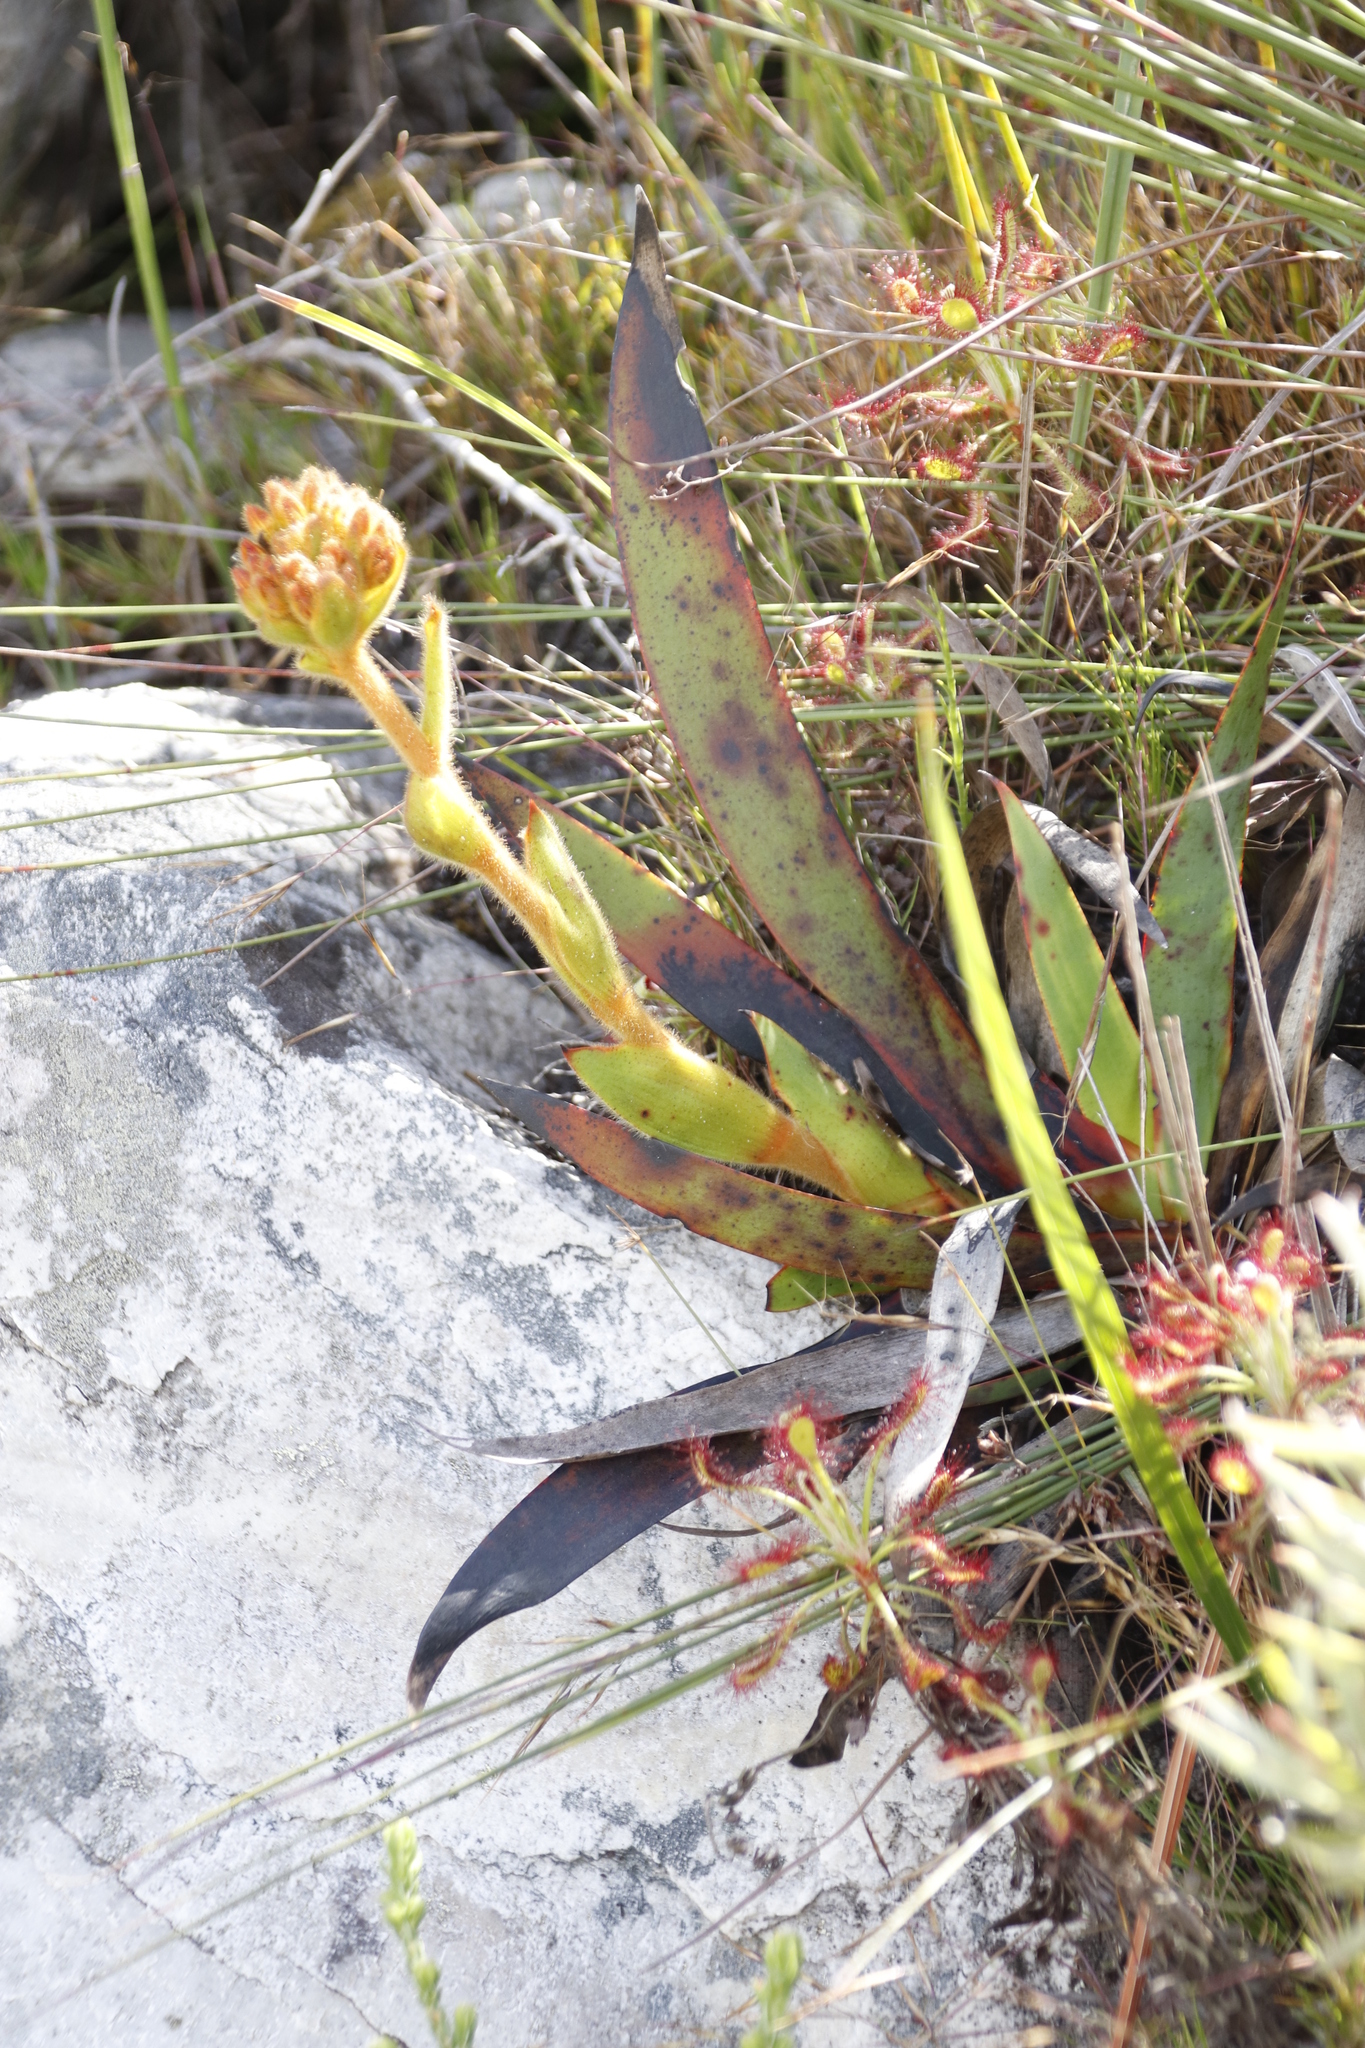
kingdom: Plantae
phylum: Tracheophyta
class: Liliopsida
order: Commelinales
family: Haemodoraceae
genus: Dilatris
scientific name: Dilatris viscosa
